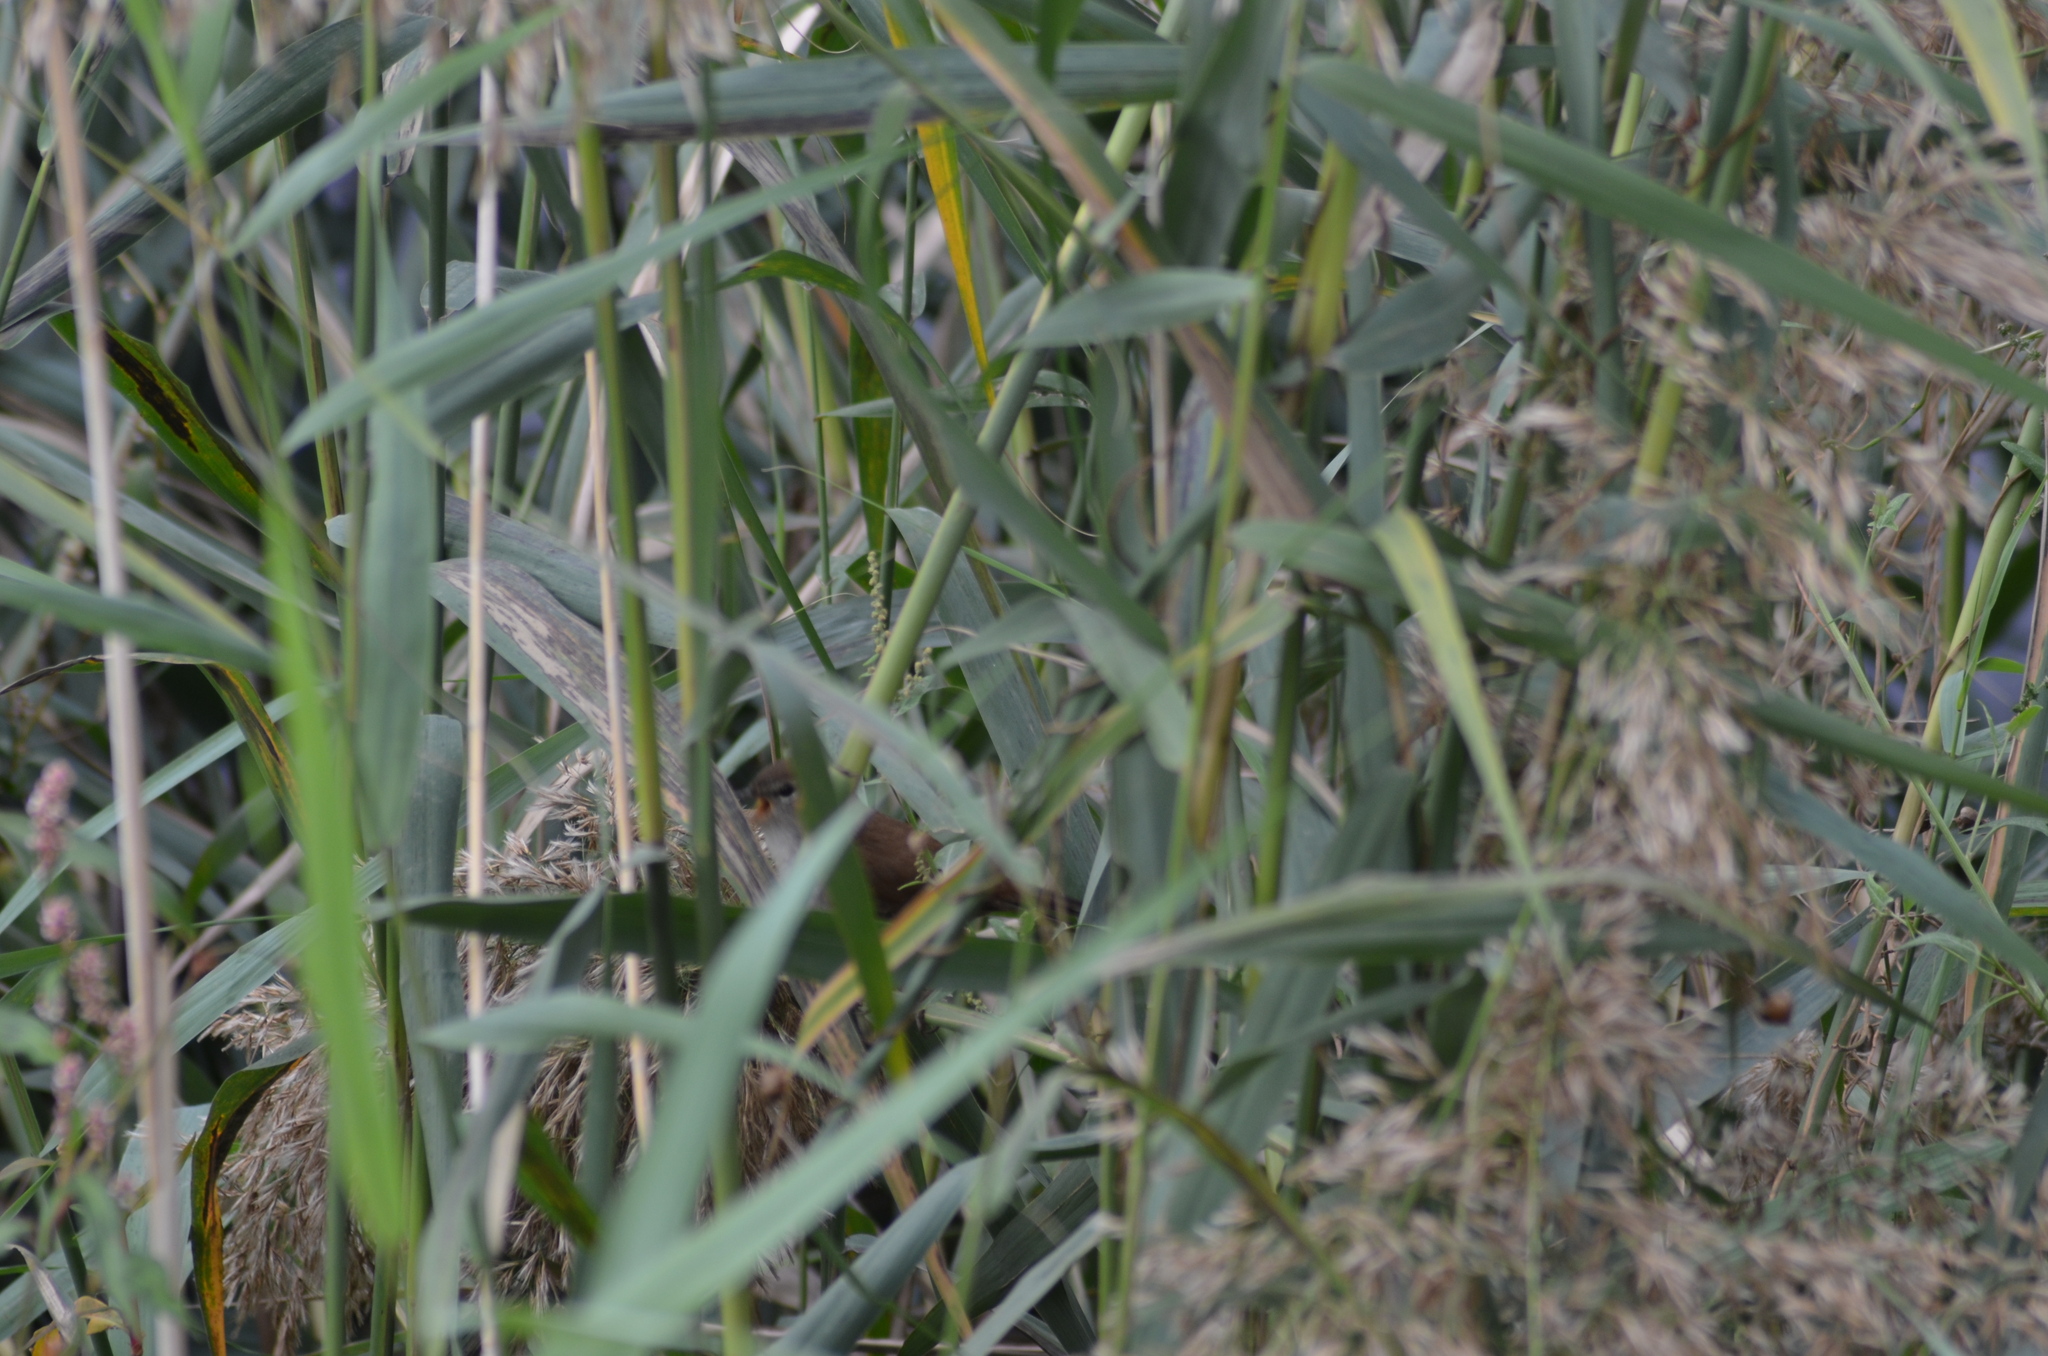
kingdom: Animalia
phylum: Chordata
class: Aves
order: Passeriformes
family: Cettiidae
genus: Cettia
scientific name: Cettia cetti
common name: Cetti's warbler
